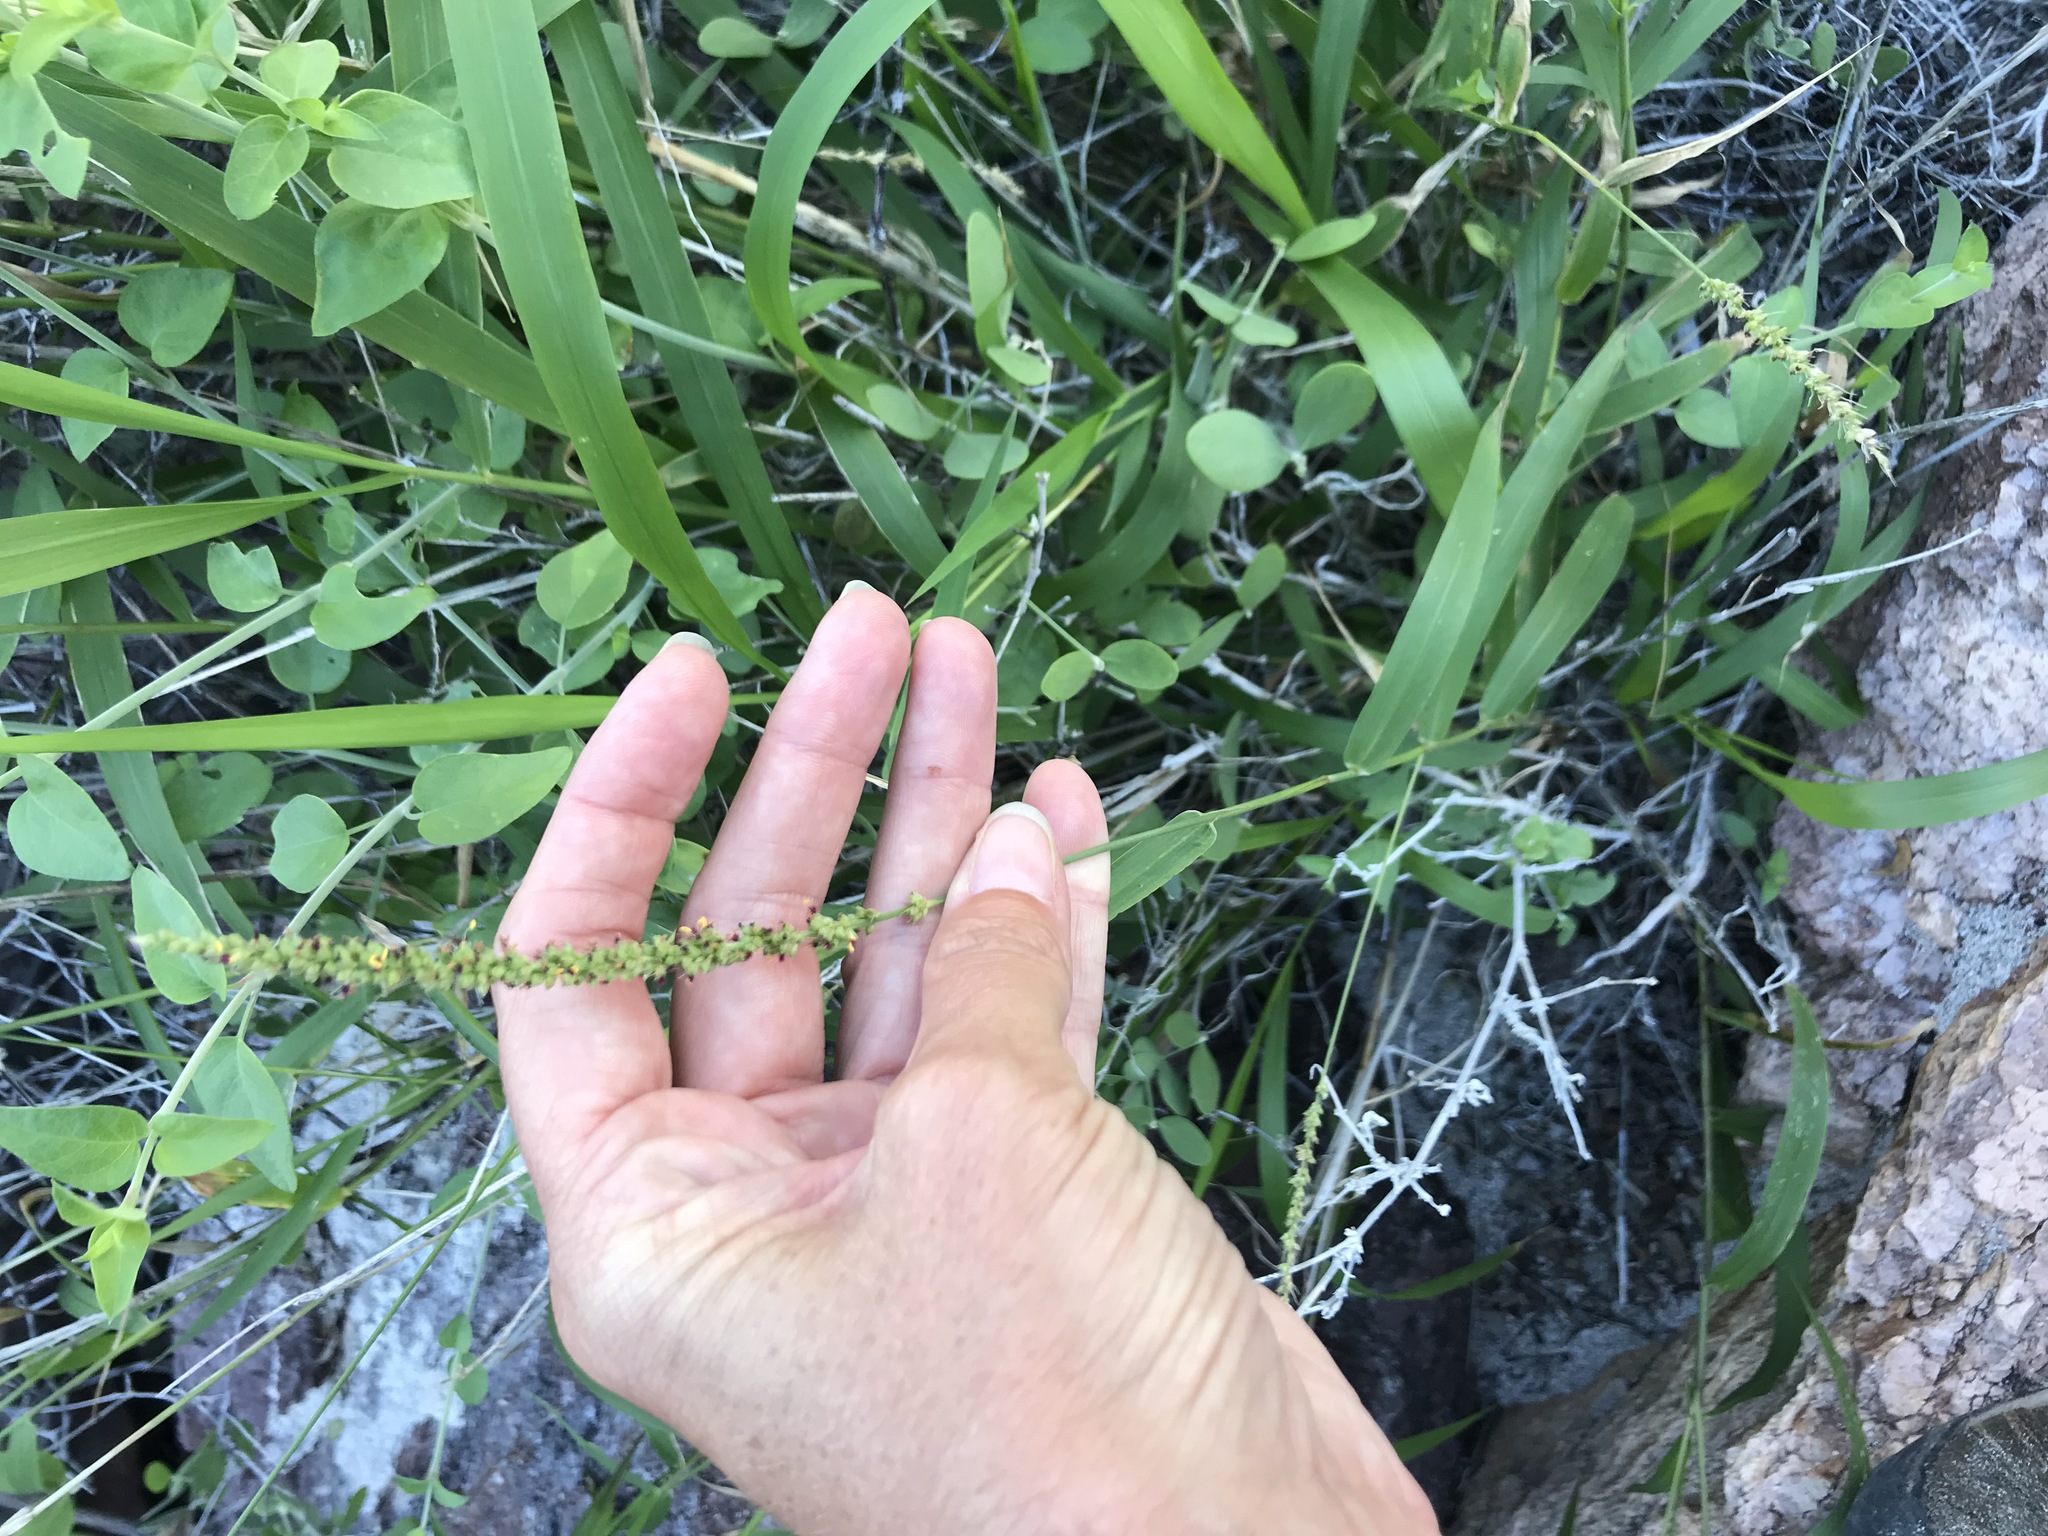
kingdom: Plantae
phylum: Tracheophyta
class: Liliopsida
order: Poales
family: Poaceae
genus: Setaria
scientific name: Setaria palmeri
